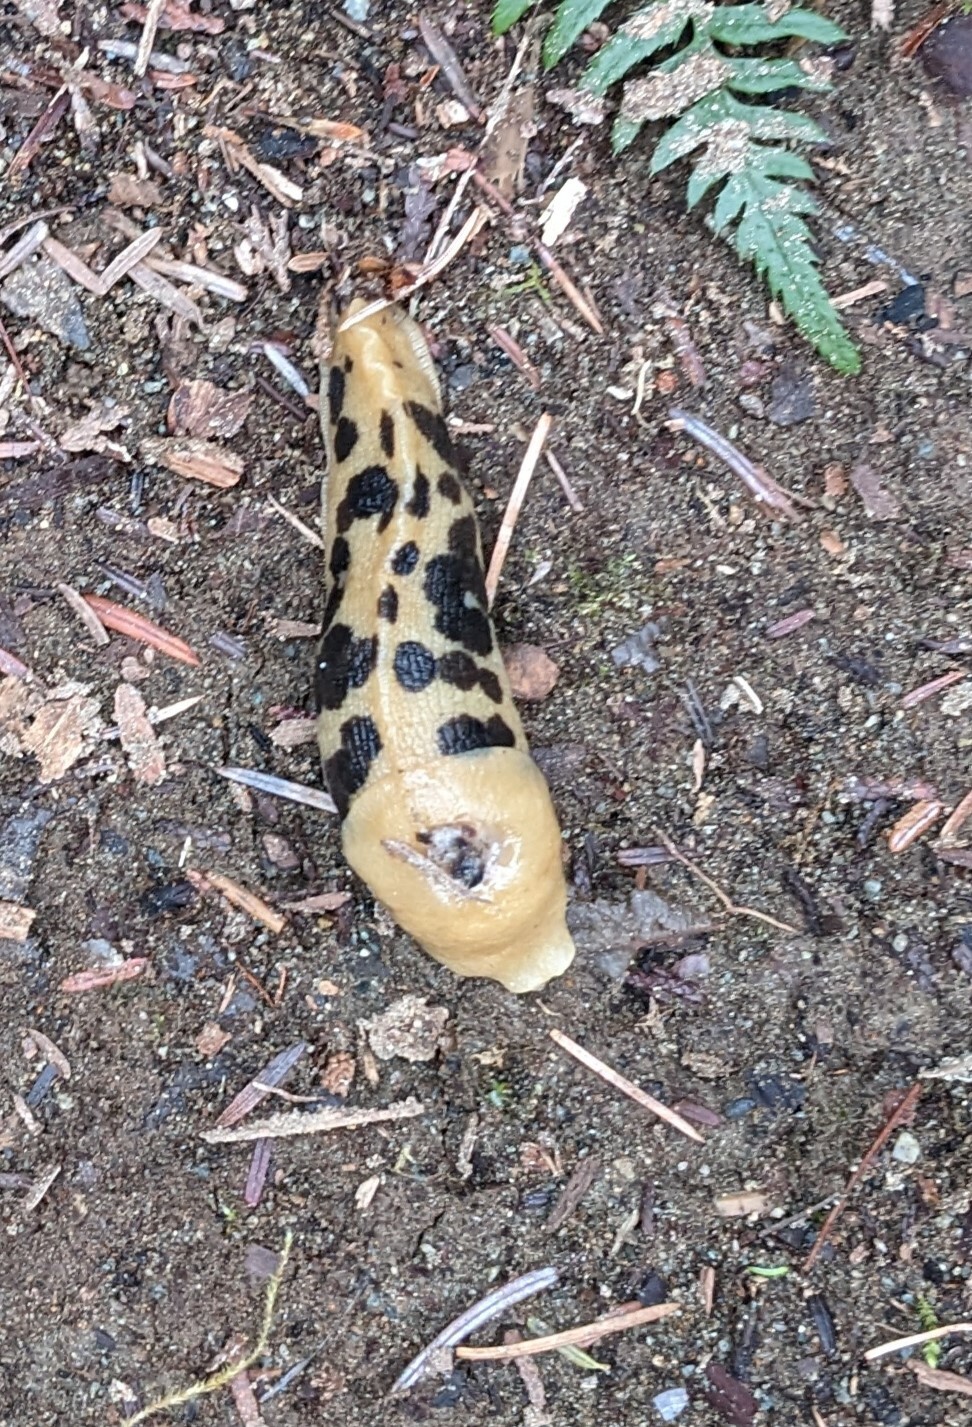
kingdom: Animalia
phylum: Mollusca
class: Gastropoda
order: Stylommatophora
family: Ariolimacidae
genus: Ariolimax
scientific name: Ariolimax columbianus
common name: Pacific banana slug
